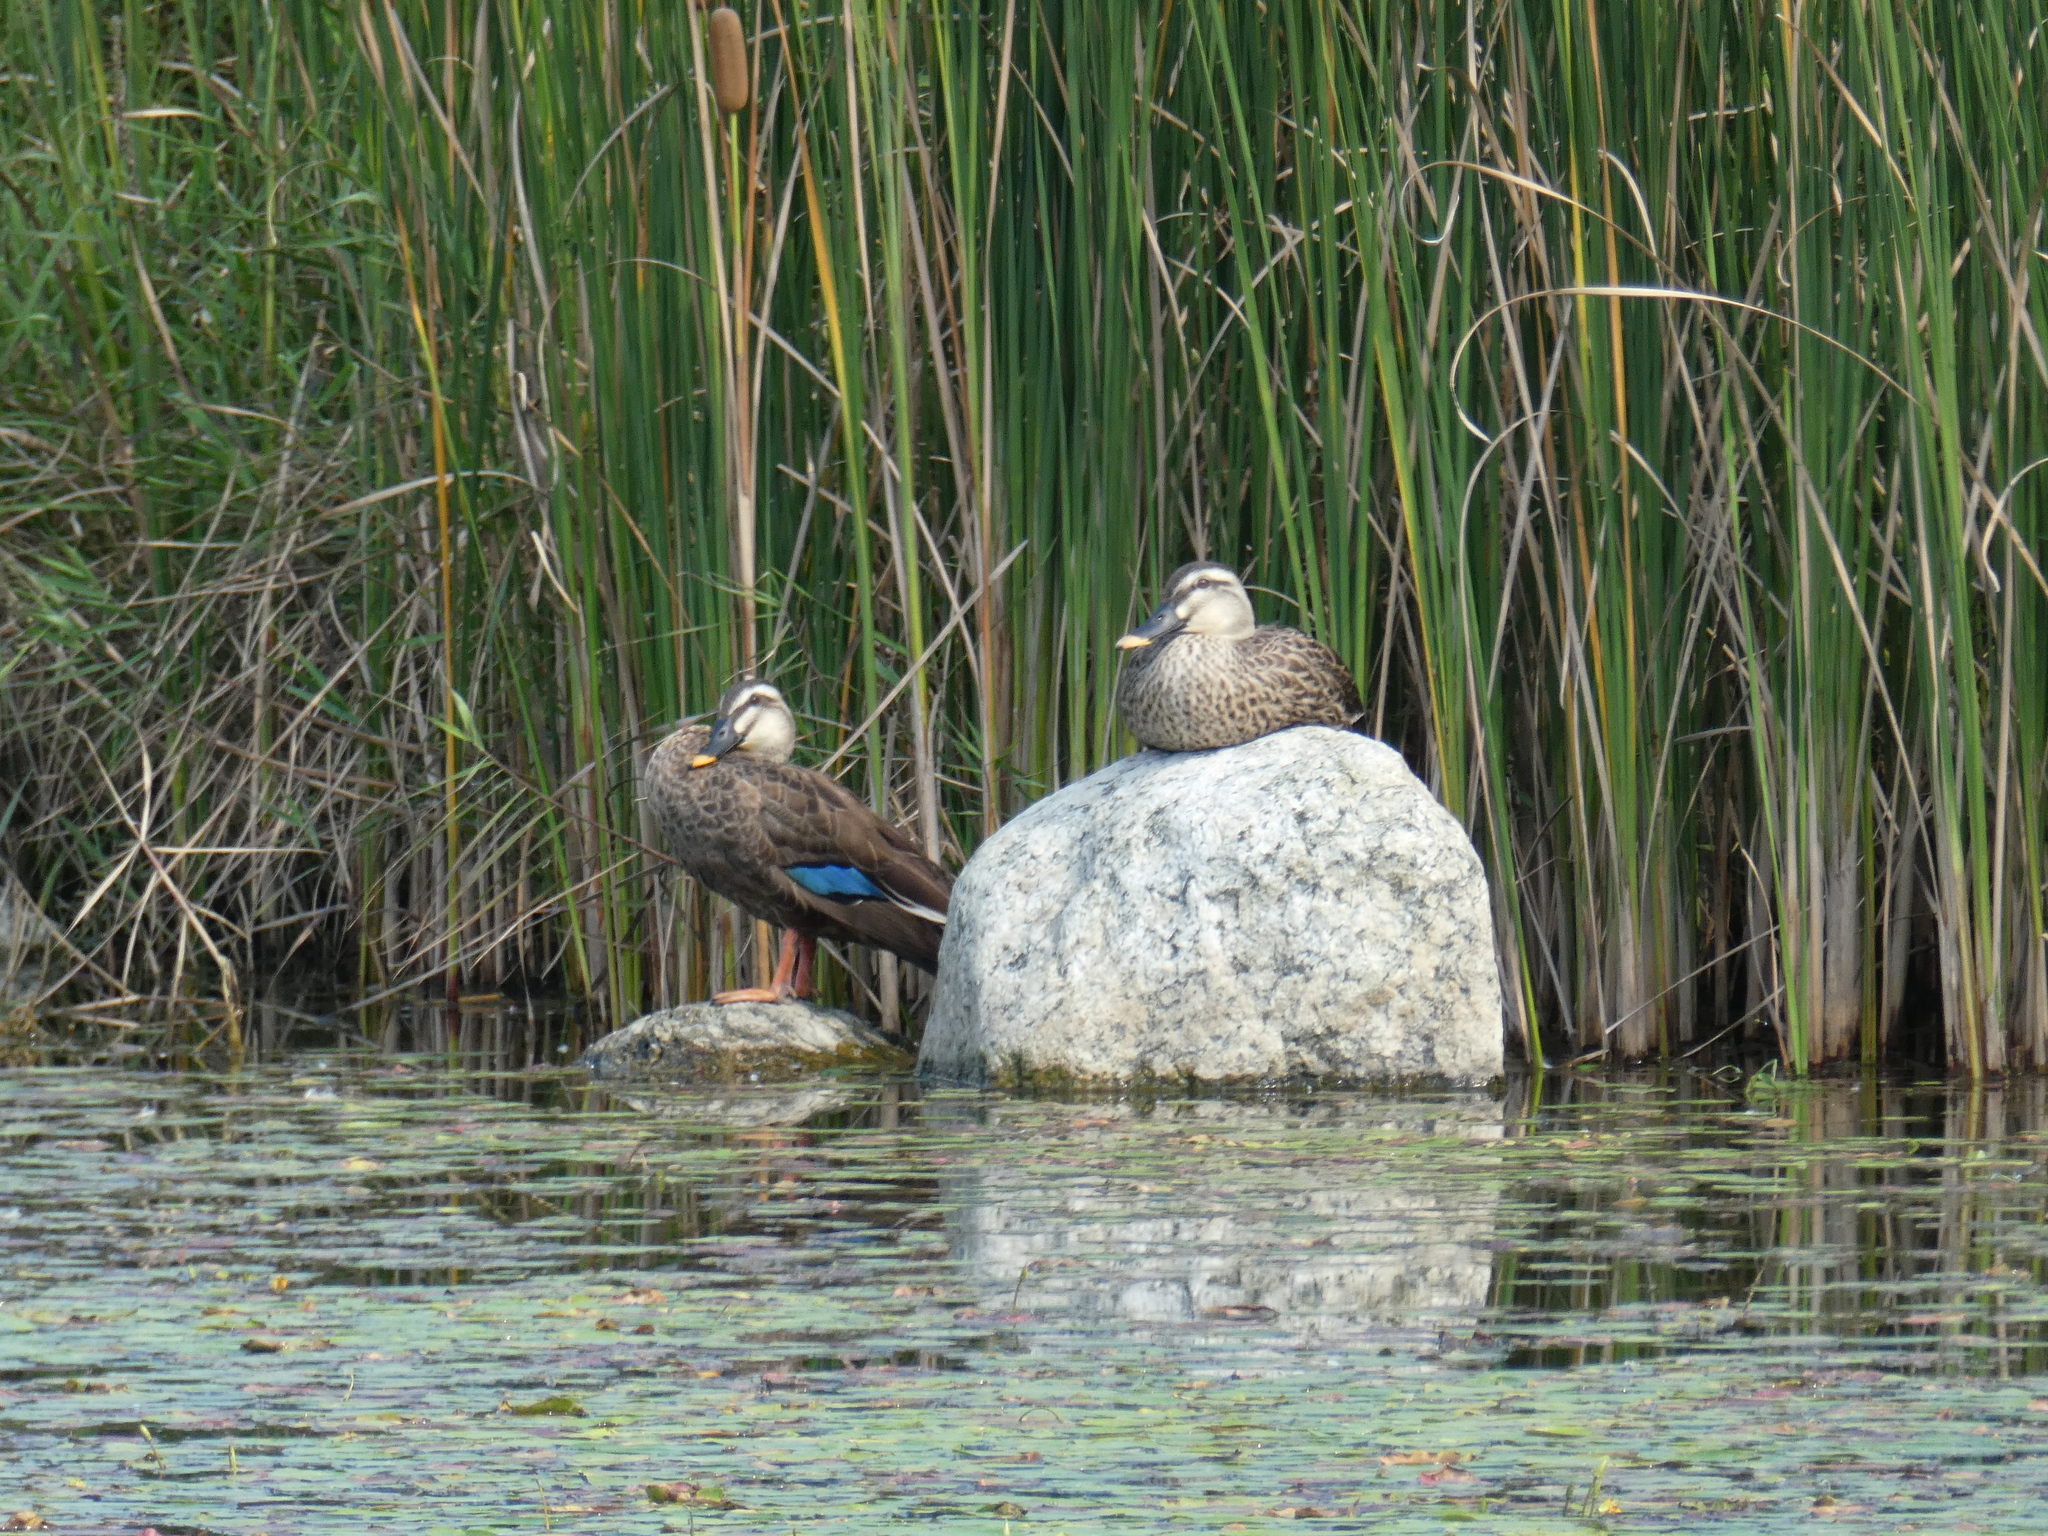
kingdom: Animalia
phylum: Chordata
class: Aves
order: Anseriformes
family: Anatidae
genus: Anas
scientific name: Anas zonorhyncha
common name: Eastern spot-billed duck
